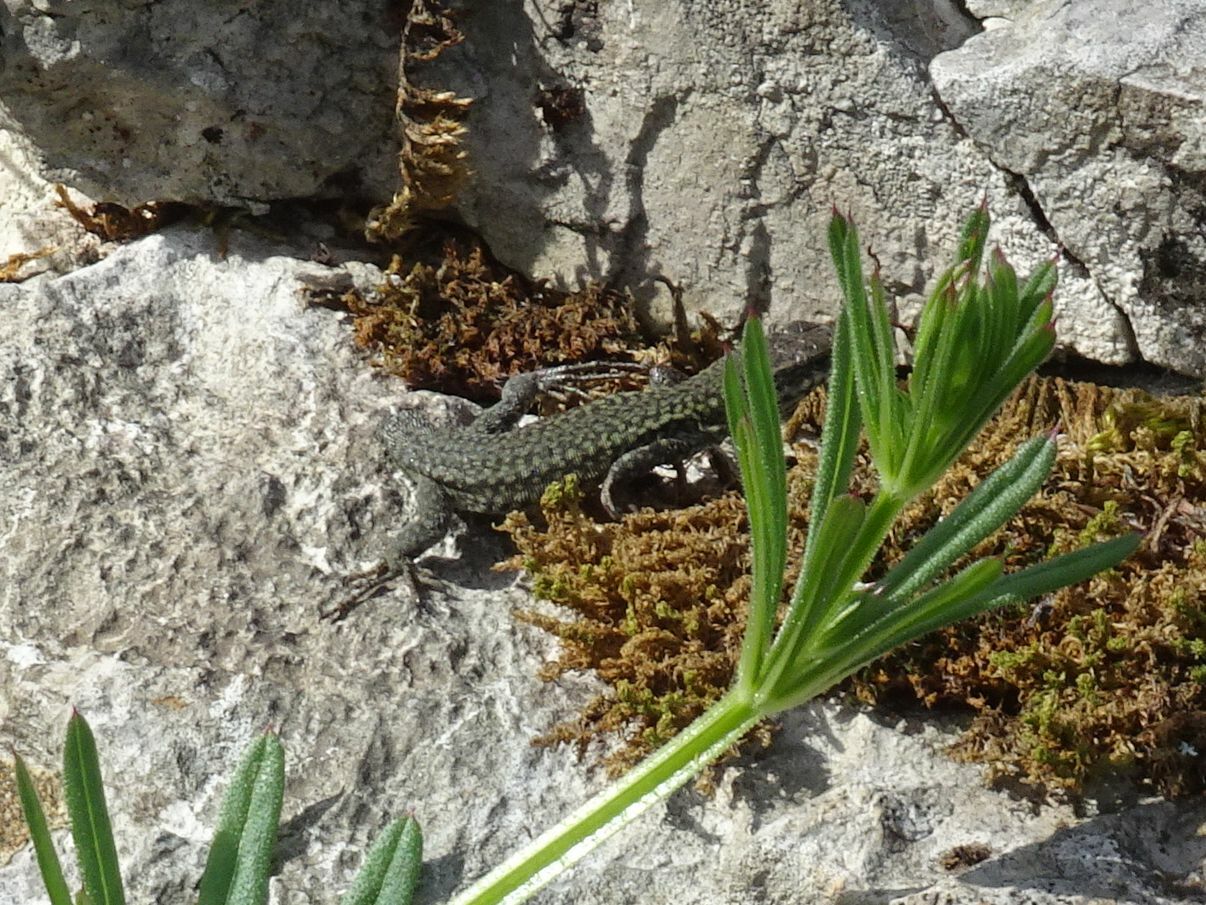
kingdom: Animalia
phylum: Chordata
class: Squamata
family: Lacertidae
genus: Podarcis
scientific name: Podarcis liolepis
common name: Catalonian wall lizard
